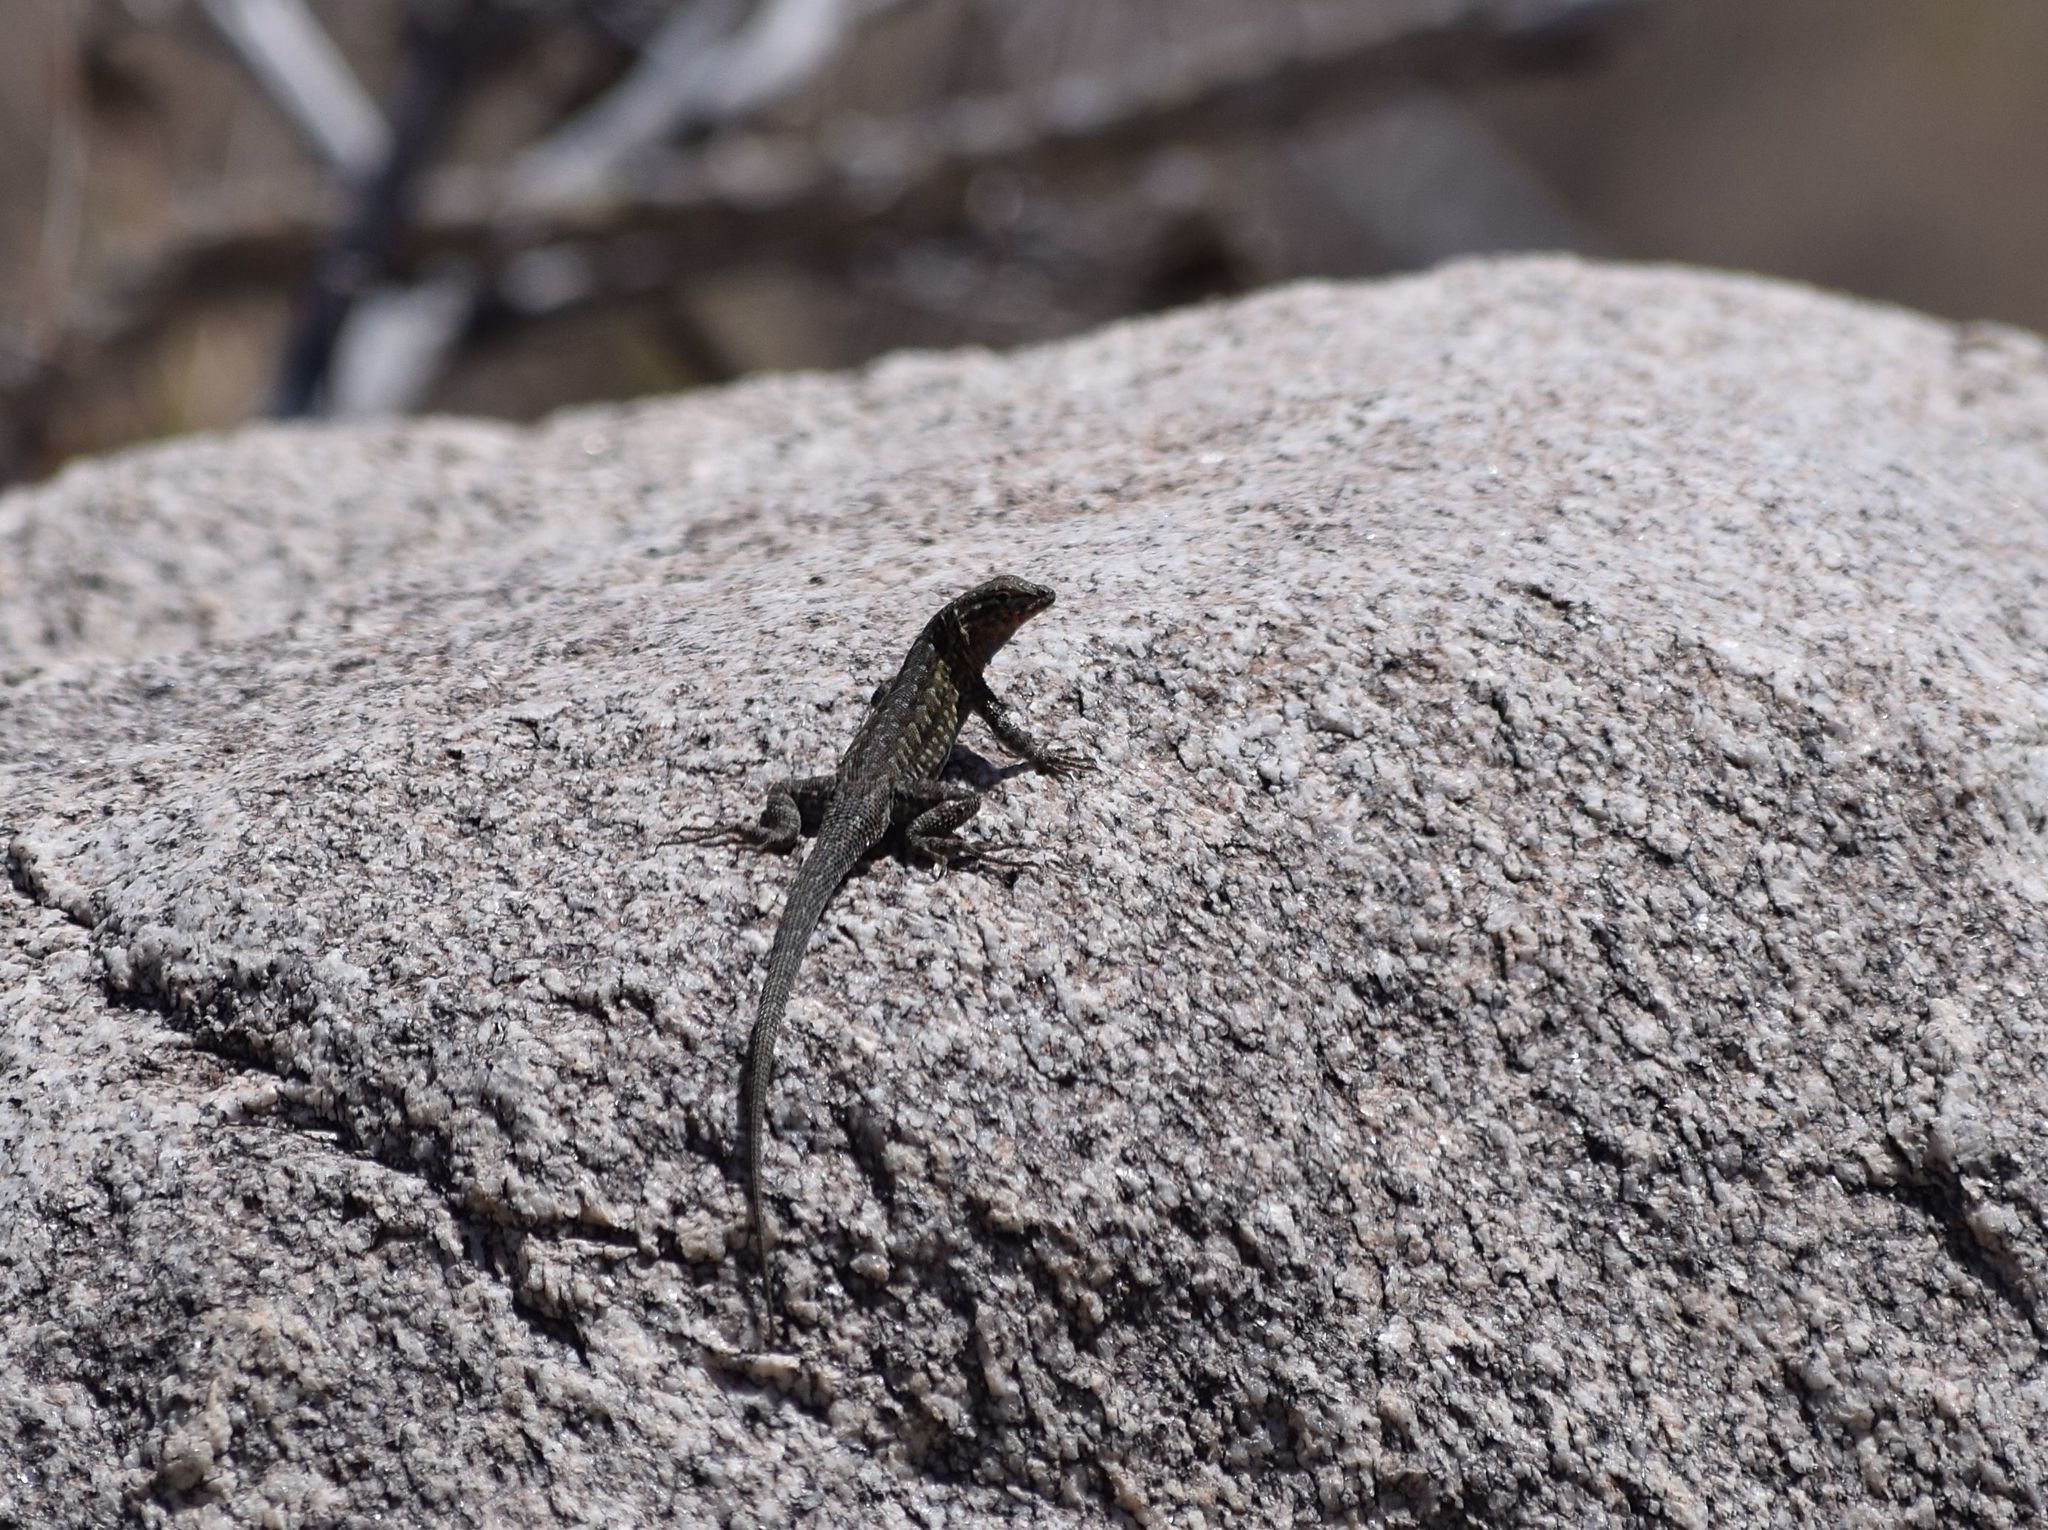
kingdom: Animalia
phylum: Chordata
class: Squamata
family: Phrynosomatidae
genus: Uta
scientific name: Uta stansburiana
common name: Side-blotched lizard
